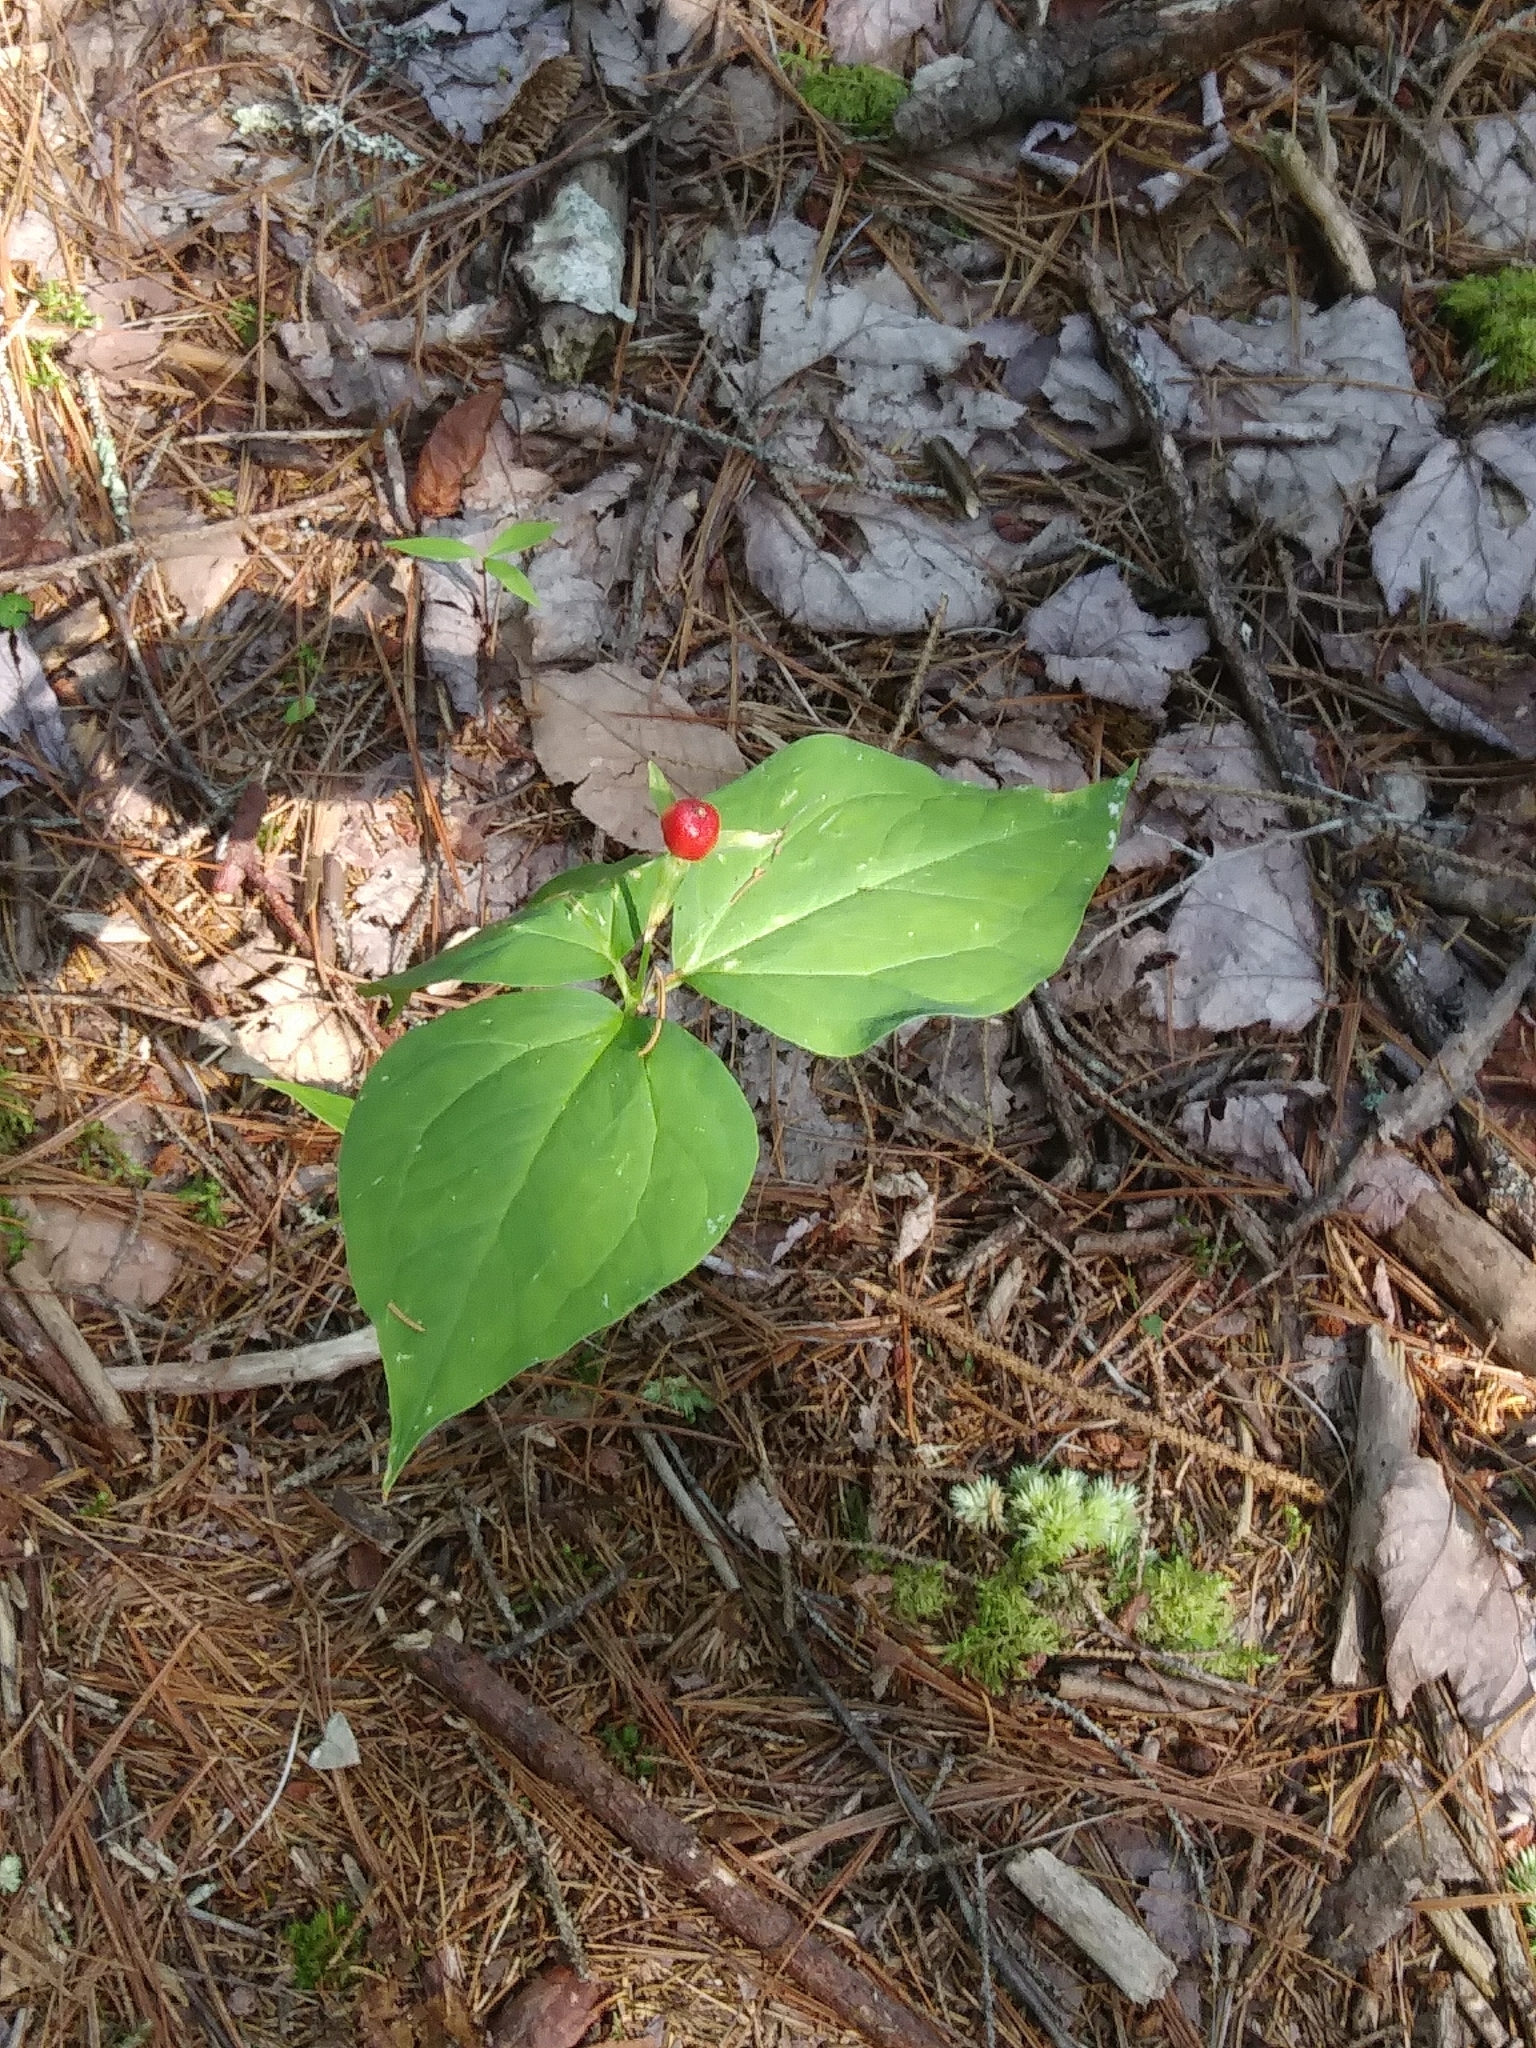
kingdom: Plantae
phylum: Tracheophyta
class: Liliopsida
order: Liliales
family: Melanthiaceae
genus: Trillium
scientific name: Trillium undulatum
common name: Paint trillium
